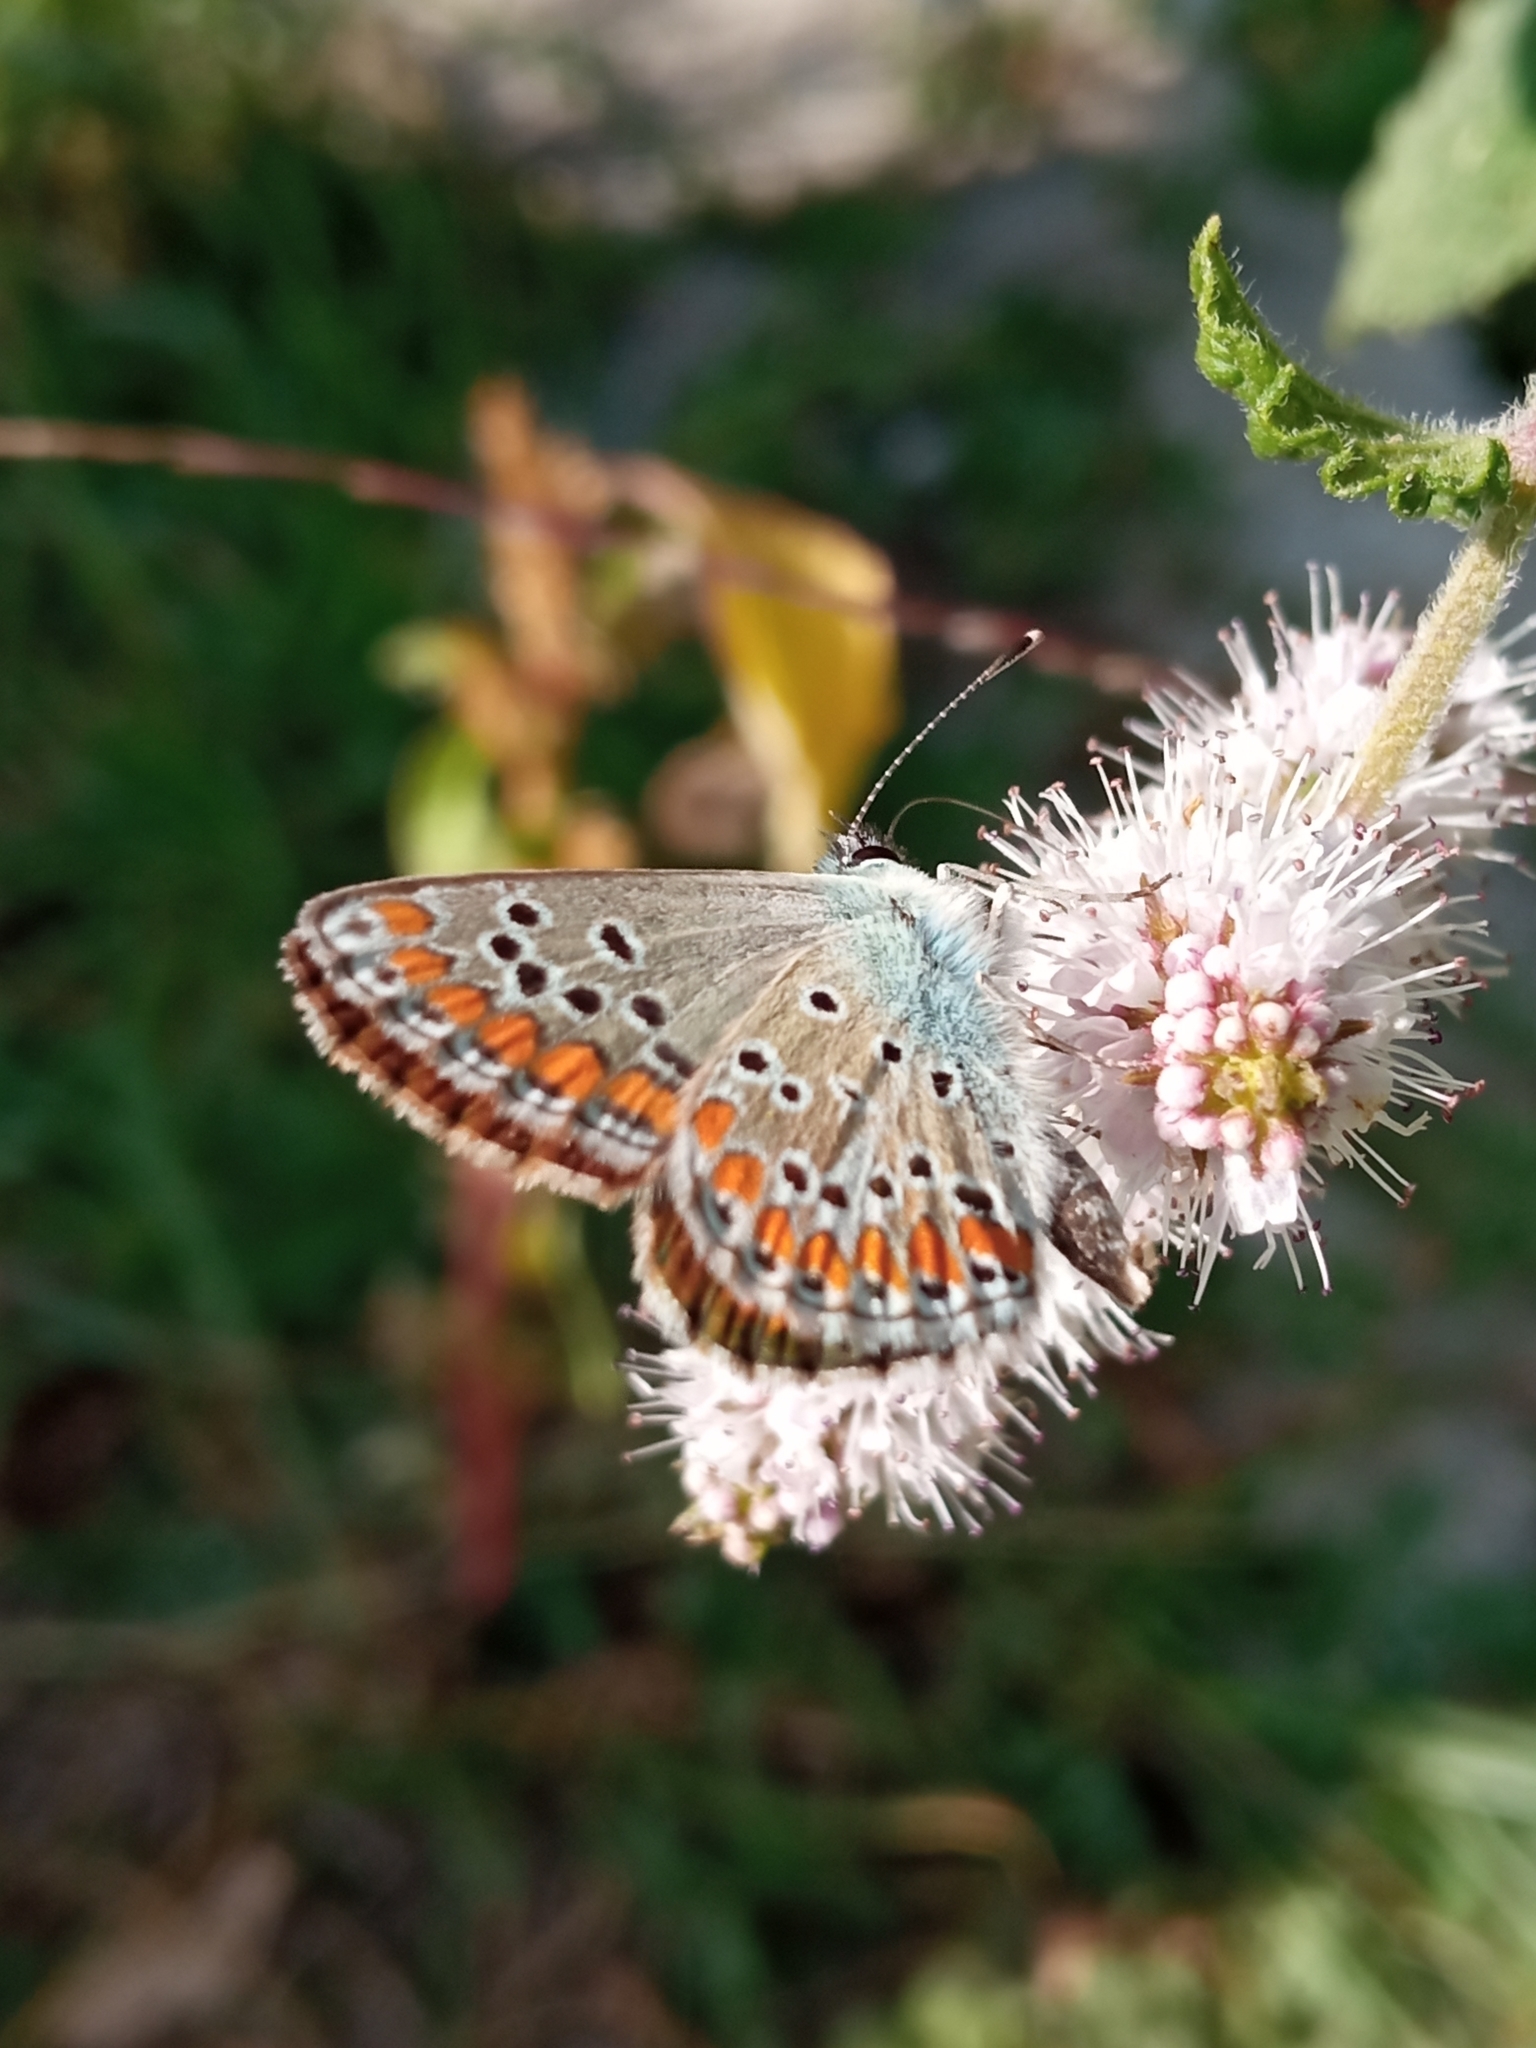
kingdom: Animalia
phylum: Arthropoda
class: Insecta
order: Lepidoptera
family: Lycaenidae
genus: Aricia
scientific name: Aricia agestis
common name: Brown argus
